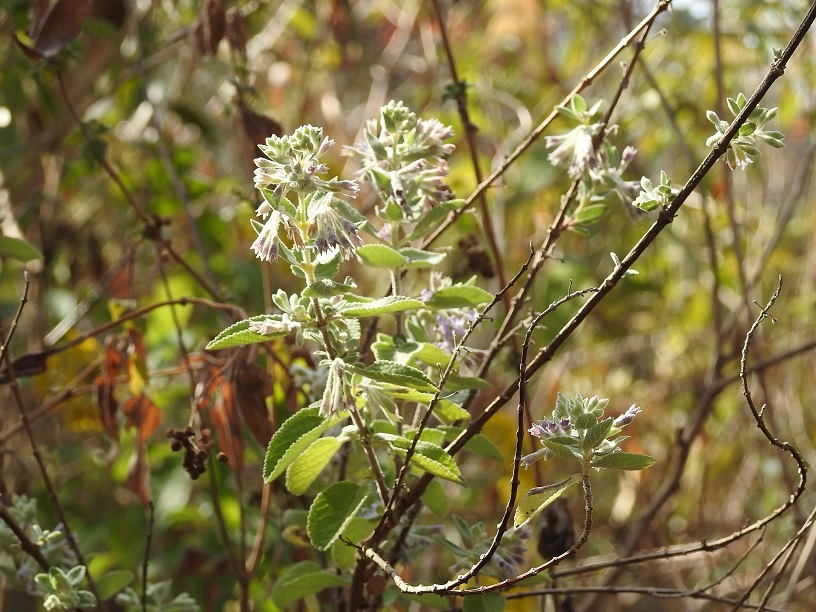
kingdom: Plantae
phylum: Tracheophyta
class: Magnoliopsida
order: Lamiales
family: Lamiaceae
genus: Condea
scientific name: Condea tomentosa
